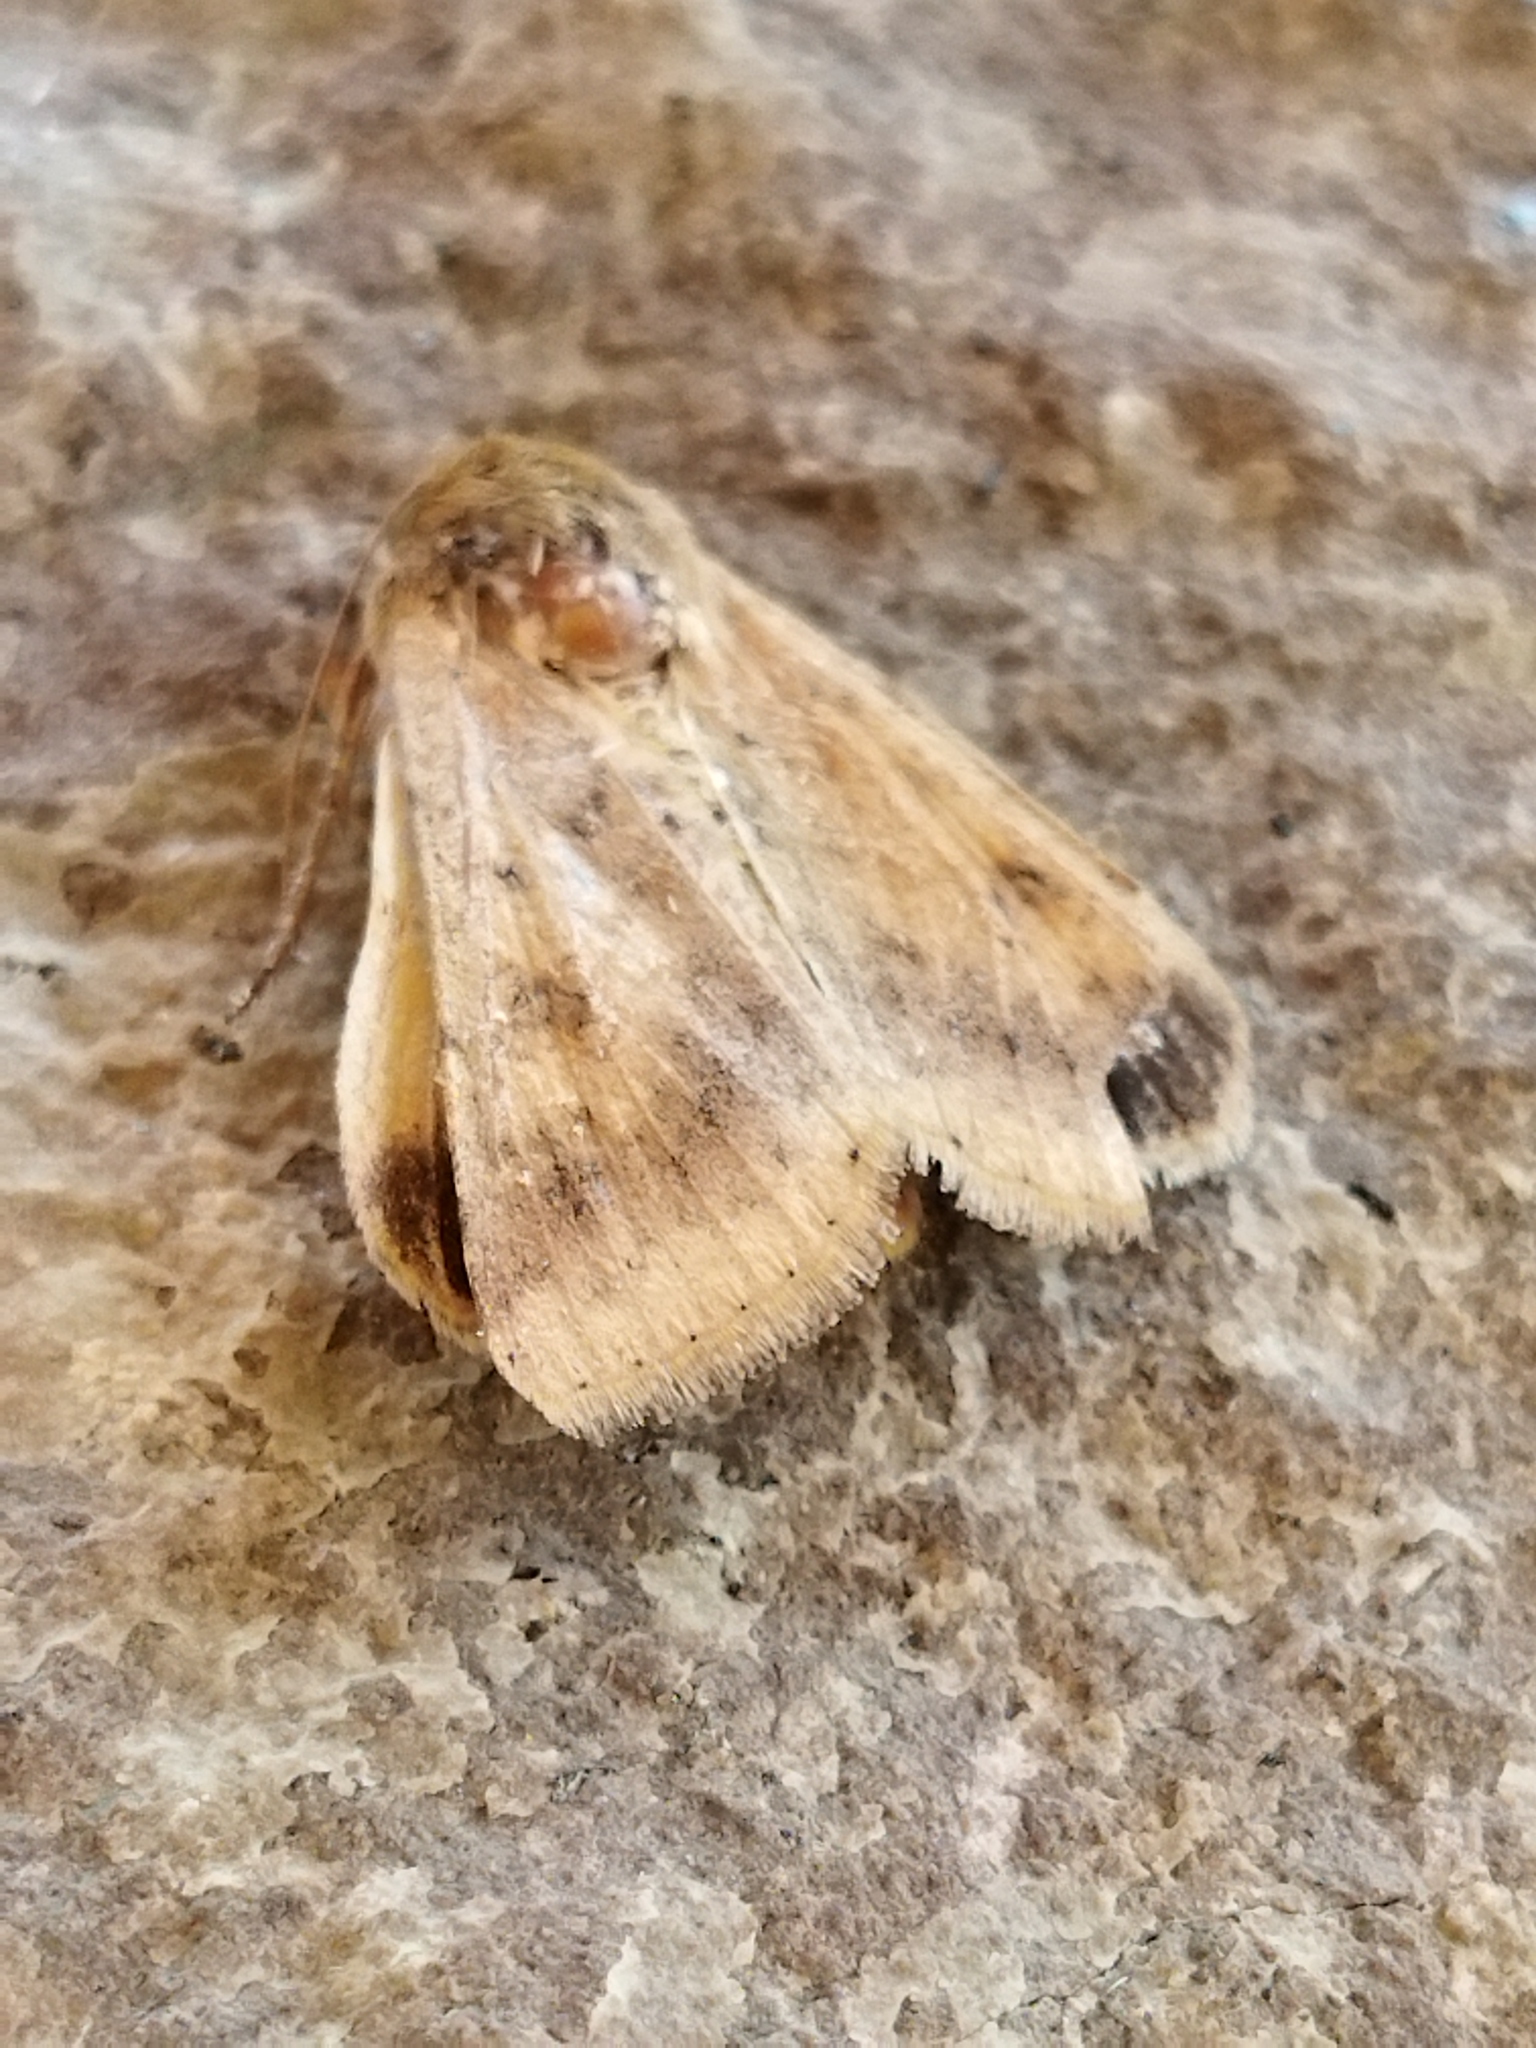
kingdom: Animalia
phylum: Arthropoda
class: Insecta
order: Lepidoptera
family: Noctuidae
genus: Helicoverpa
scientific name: Helicoverpa armigera
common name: Cotton bollworm
